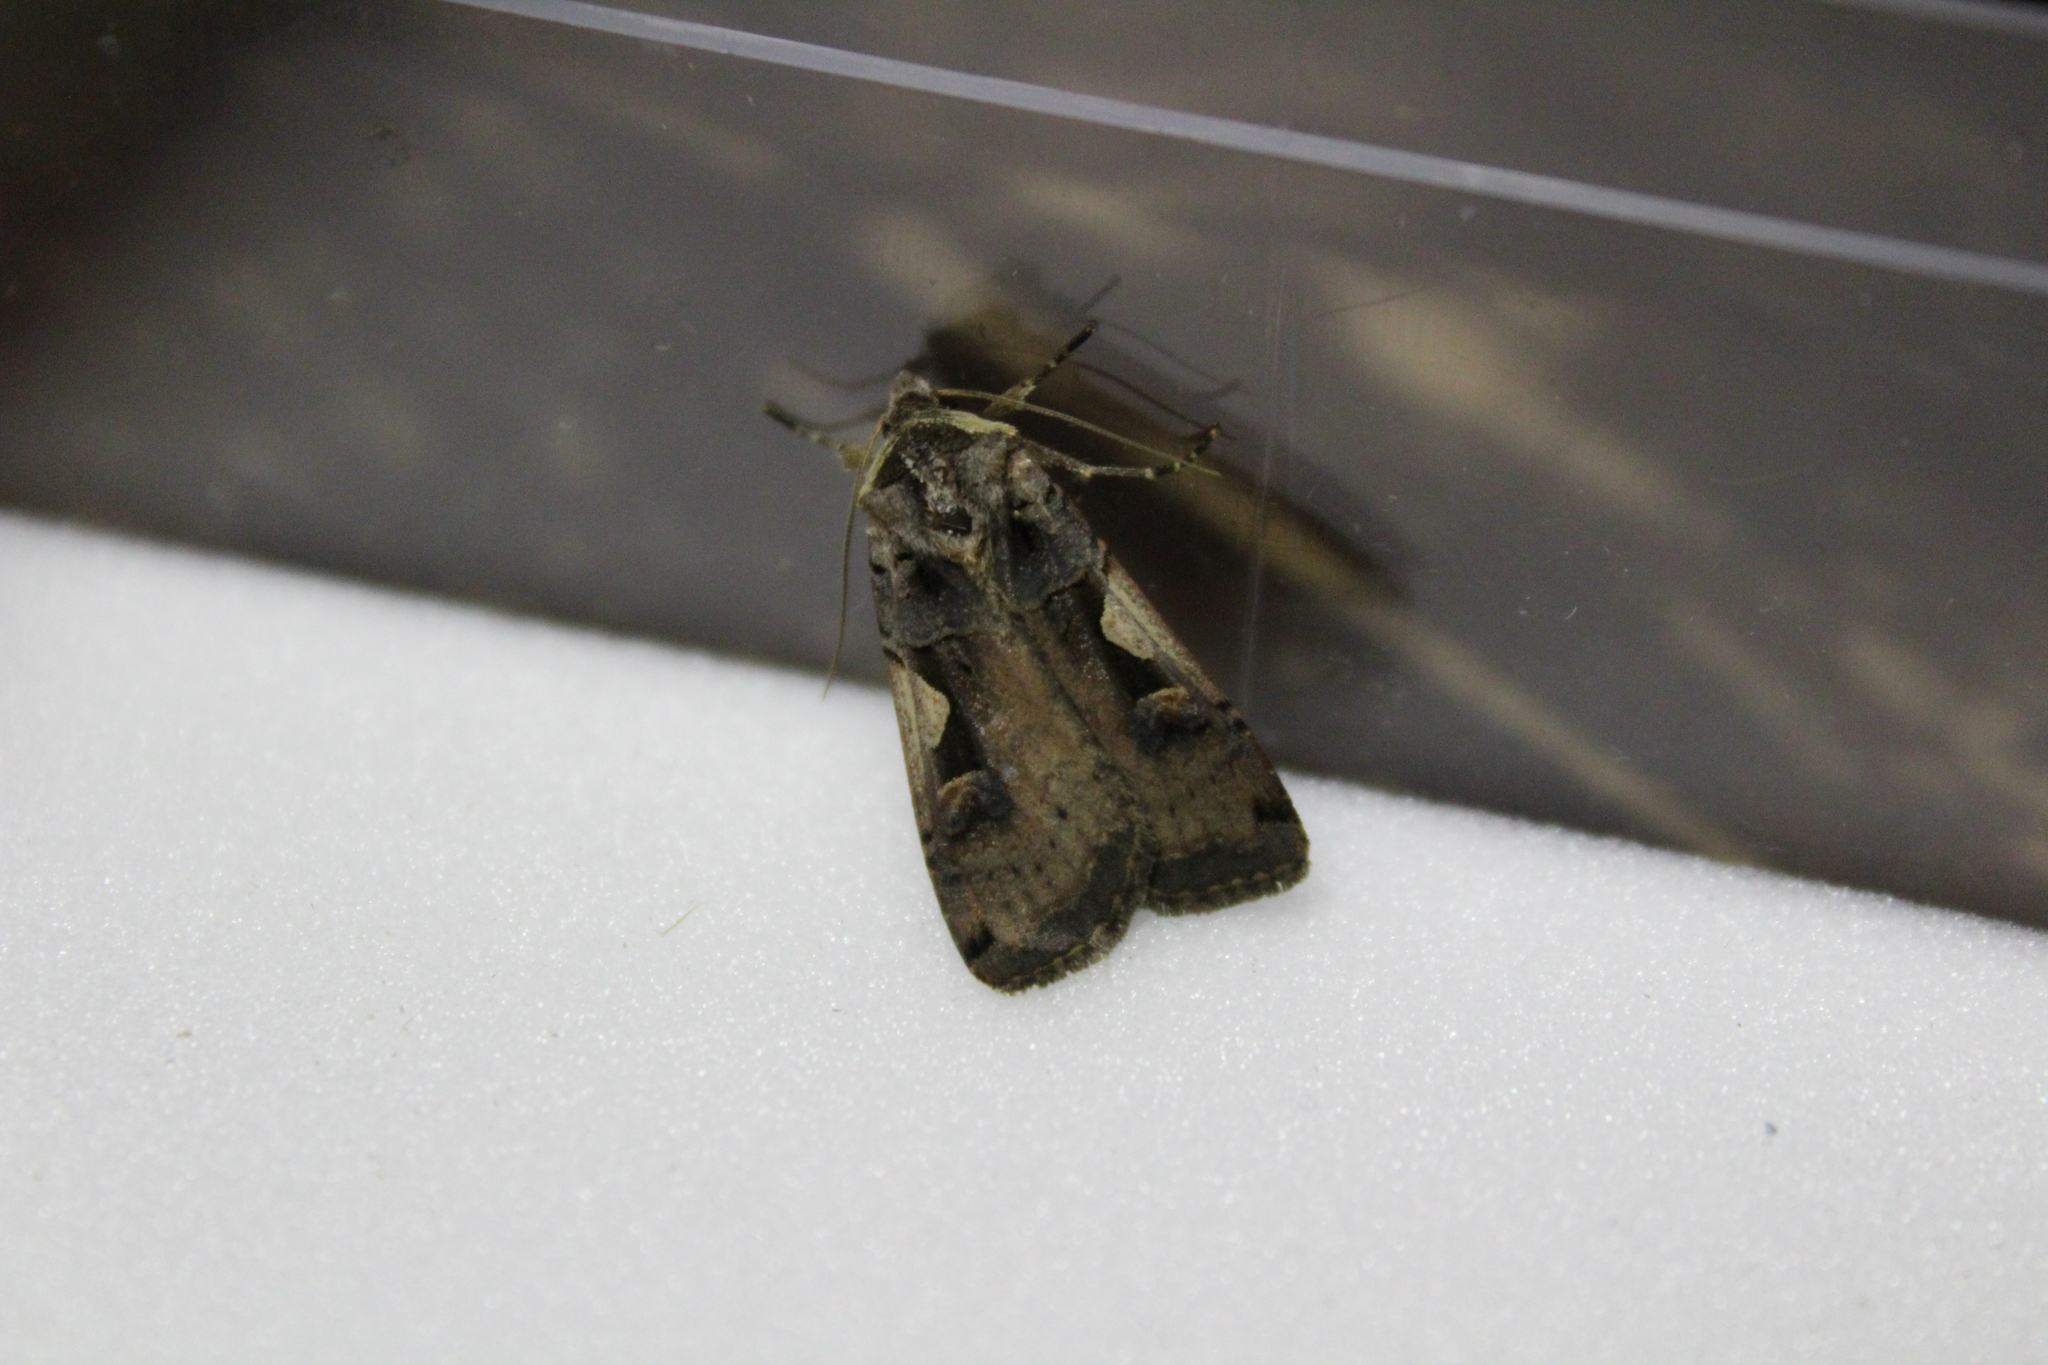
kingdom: Animalia
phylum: Arthropoda
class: Insecta
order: Lepidoptera
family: Noctuidae
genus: Xestia
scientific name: Xestia c-nigrum
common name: Setaceous hebrew character
